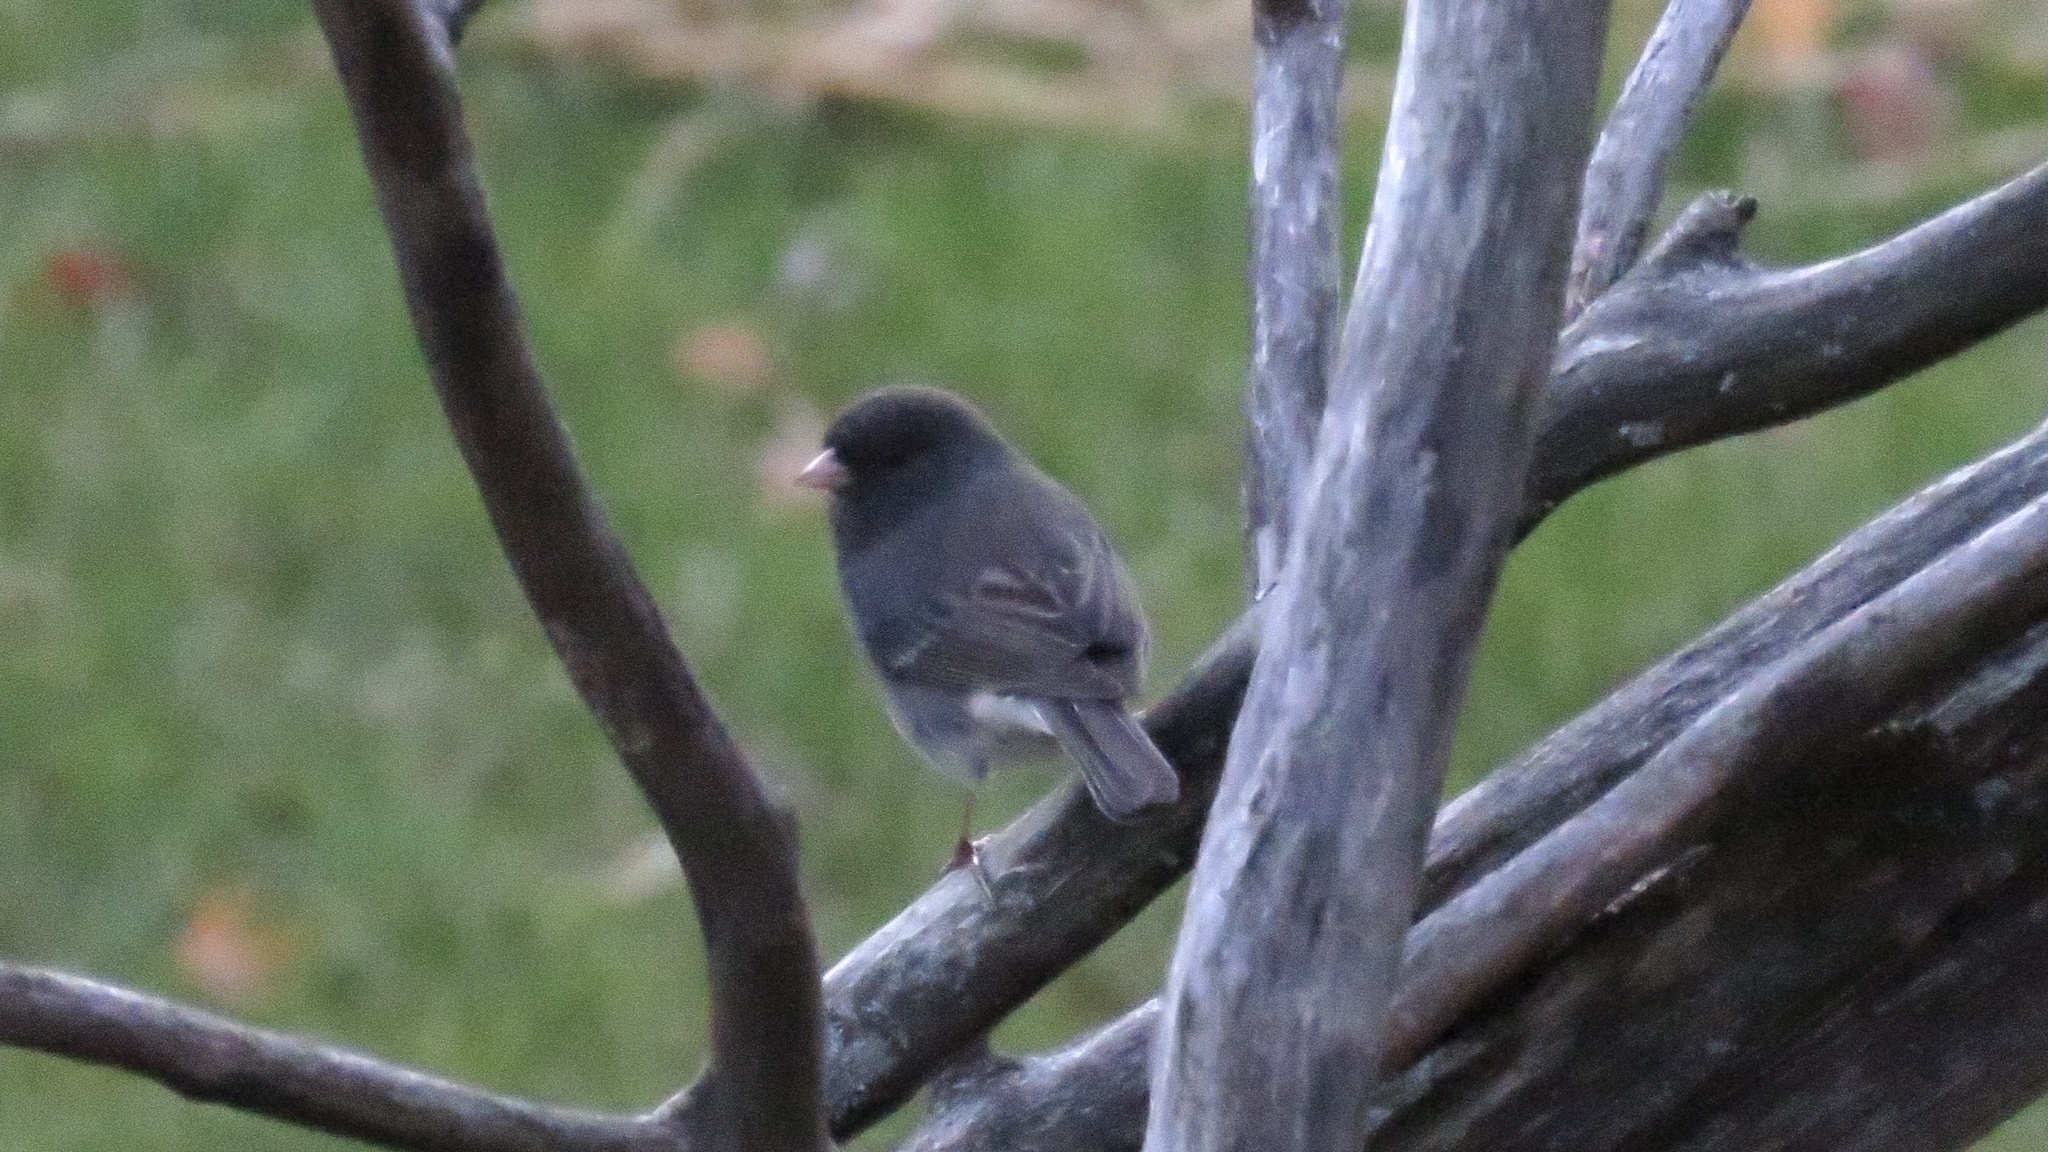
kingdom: Animalia
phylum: Chordata
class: Aves
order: Passeriformes
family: Passerellidae
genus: Junco
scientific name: Junco hyemalis
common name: Dark-eyed junco
